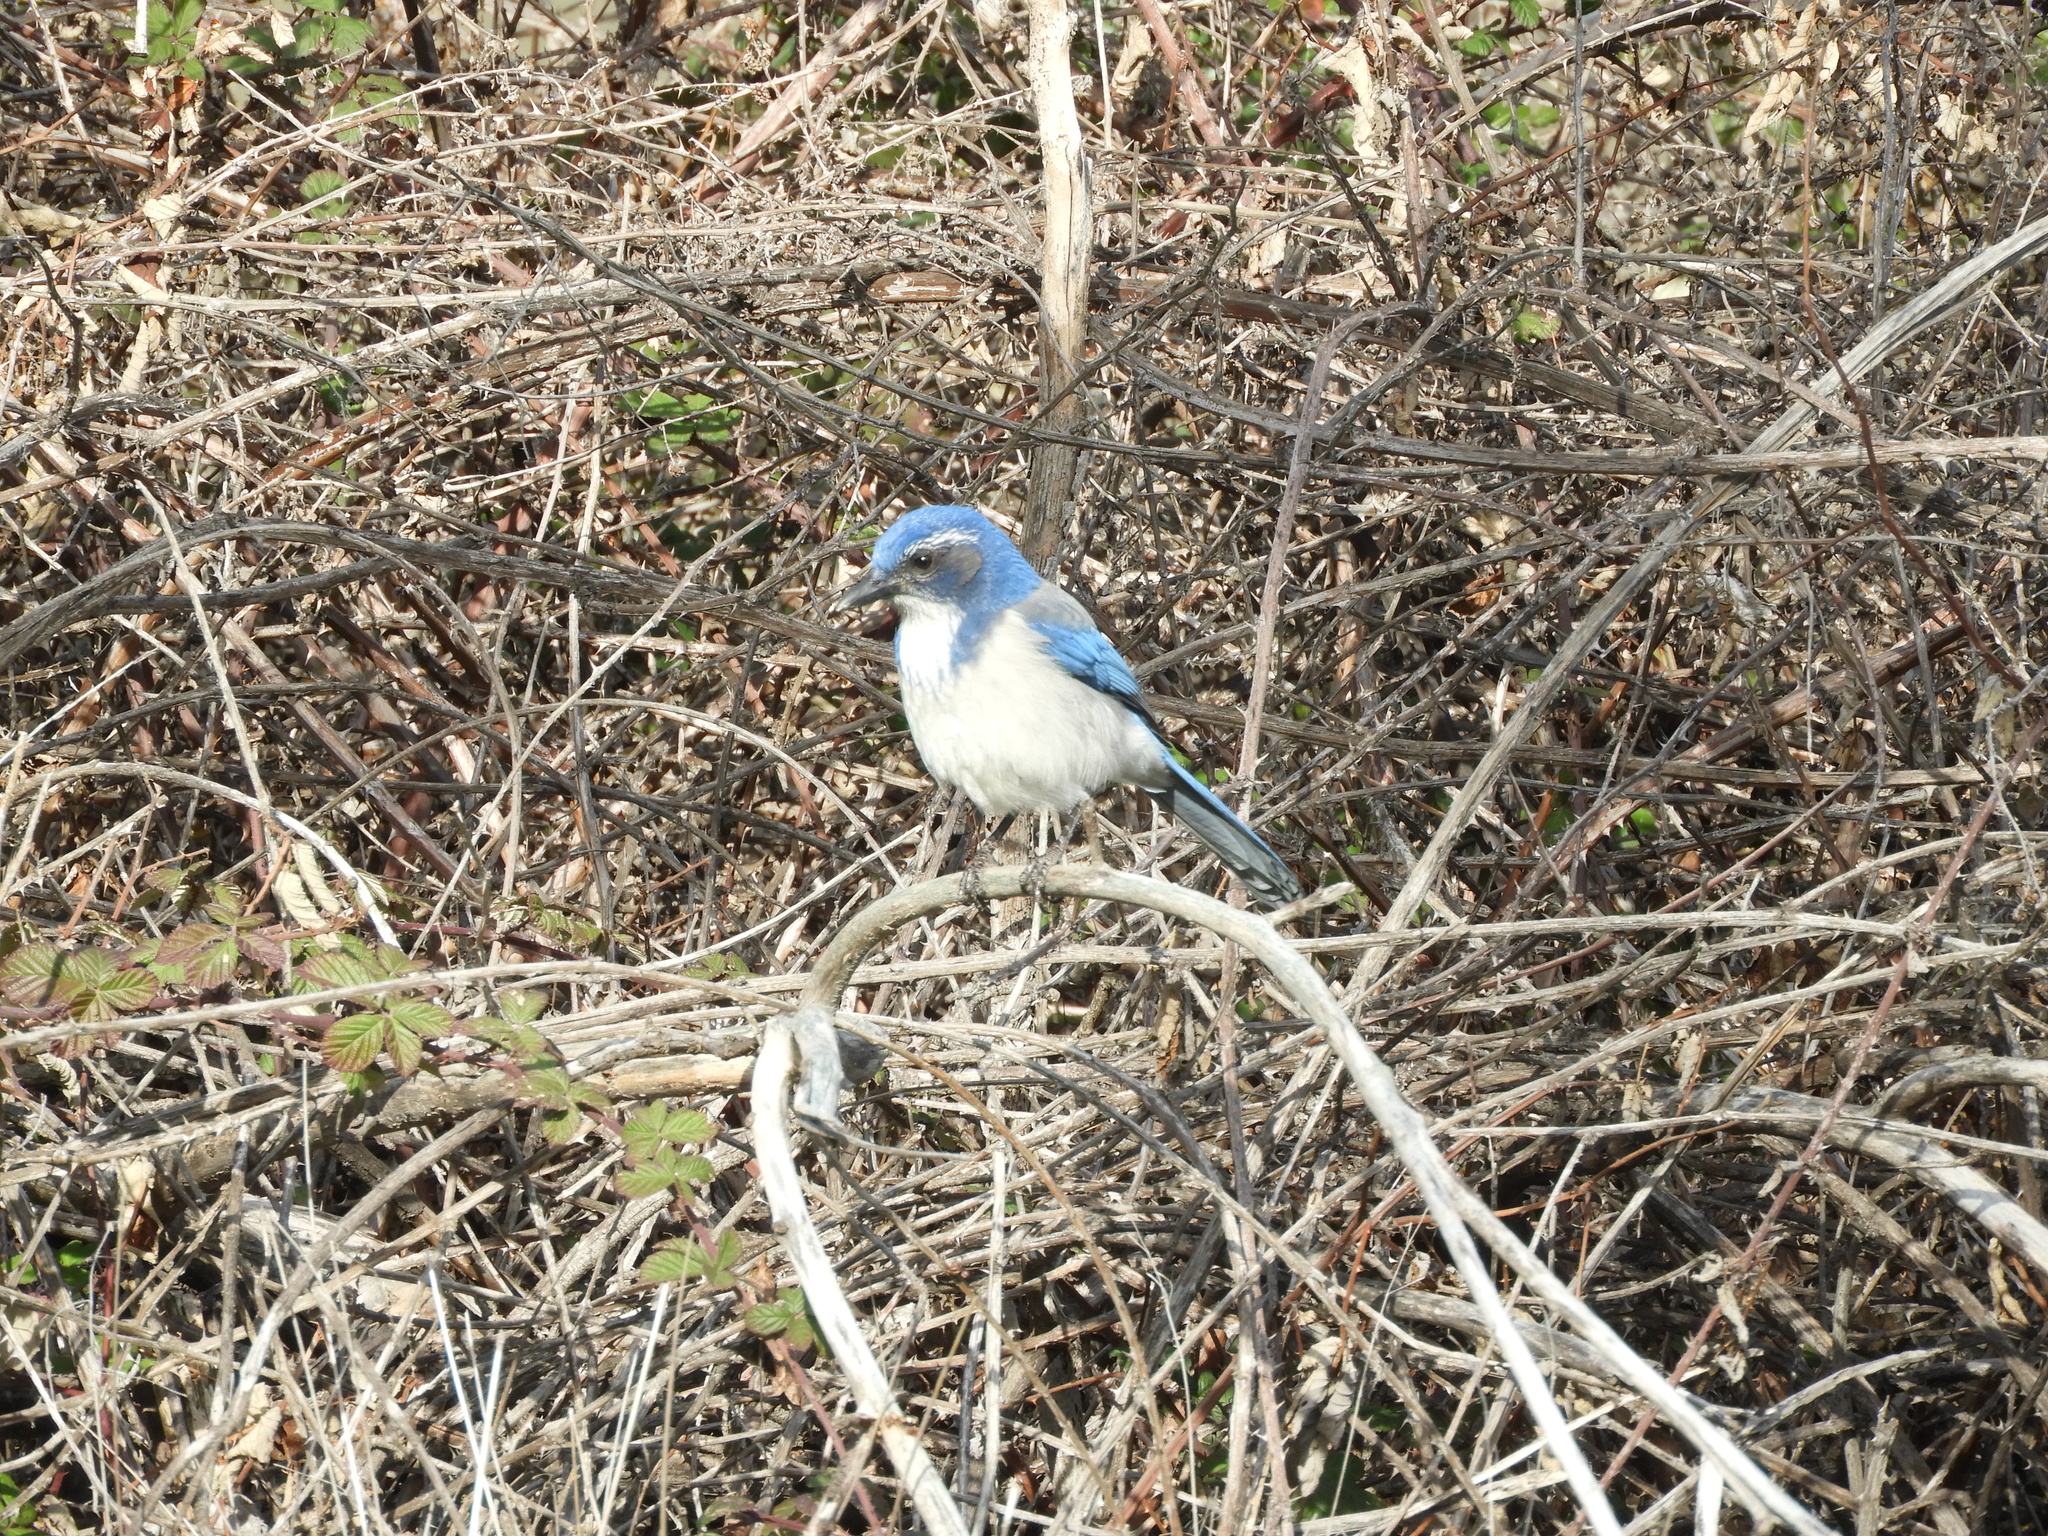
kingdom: Animalia
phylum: Chordata
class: Aves
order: Passeriformes
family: Corvidae
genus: Aphelocoma
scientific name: Aphelocoma californica
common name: California scrub-jay
